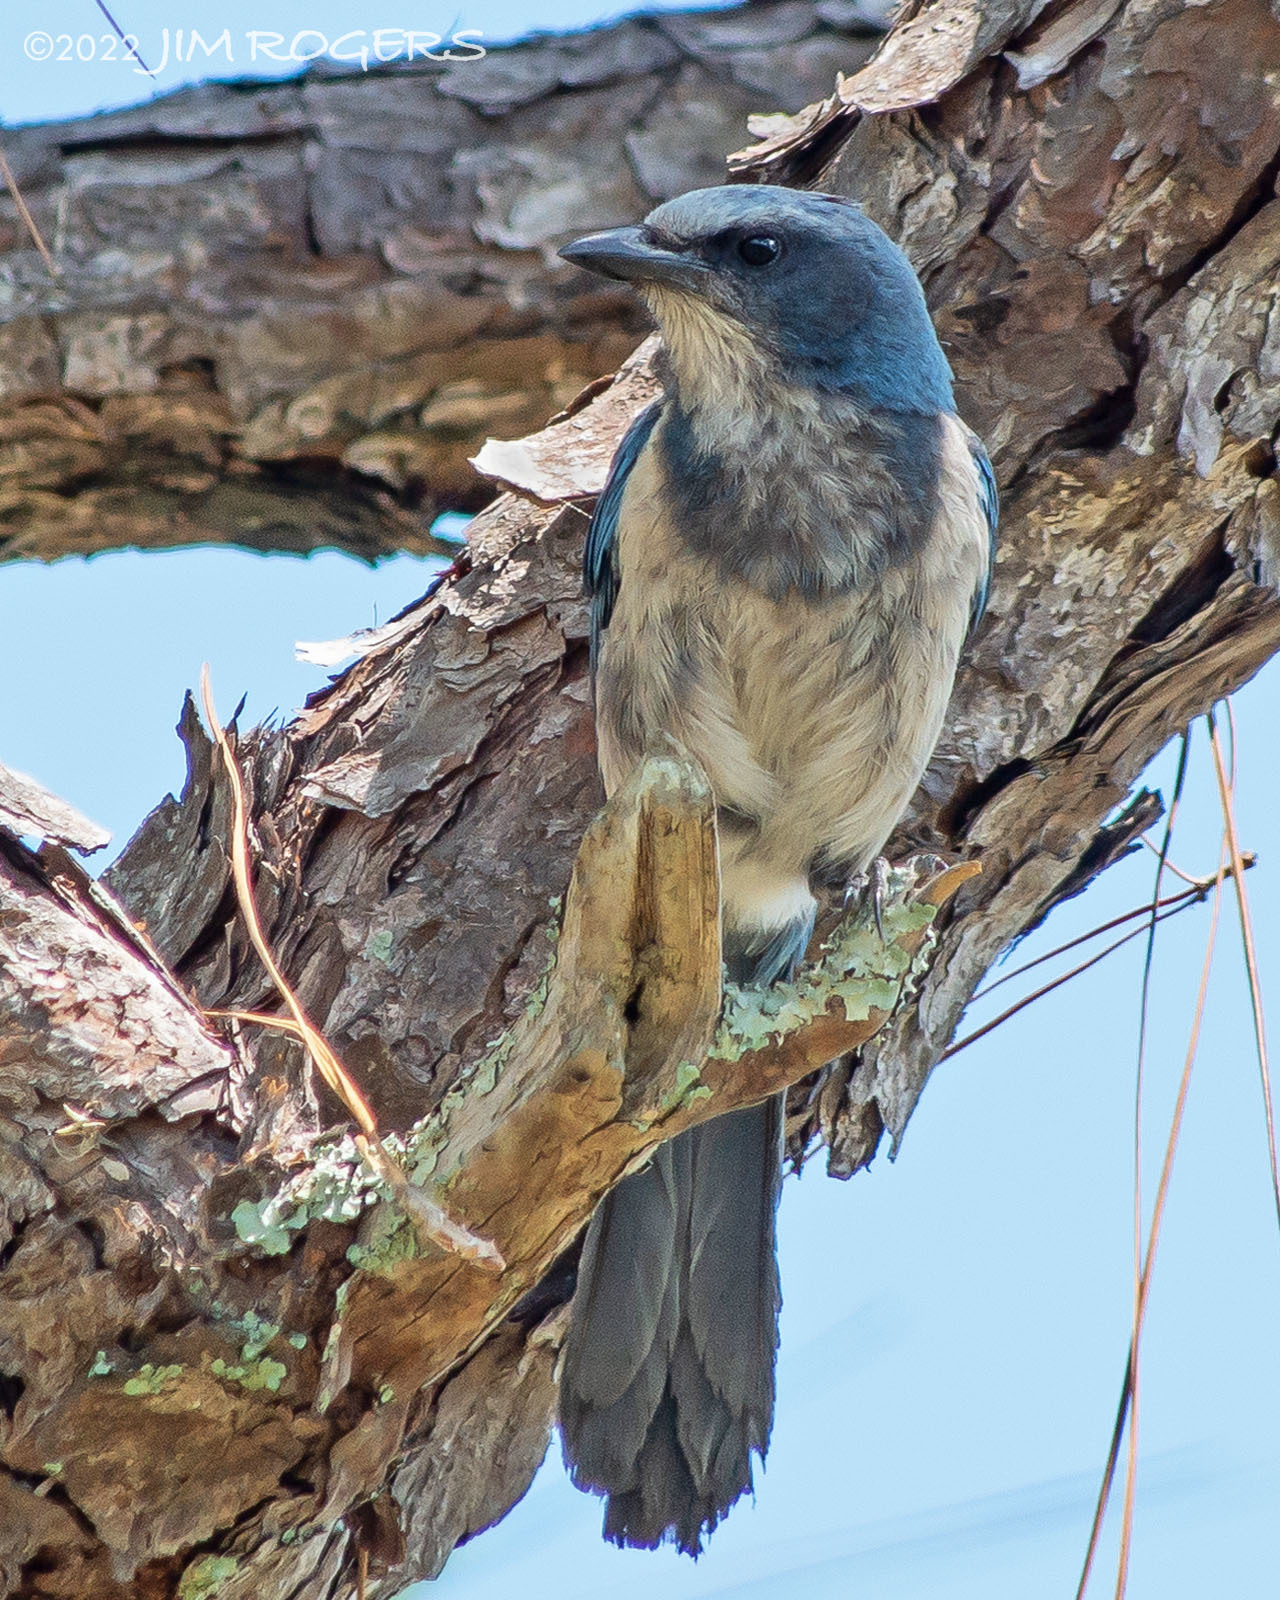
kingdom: Animalia
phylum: Chordata
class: Aves
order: Passeriformes
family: Corvidae
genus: Aphelocoma
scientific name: Aphelocoma coerulescens
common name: Florida scrub jay
